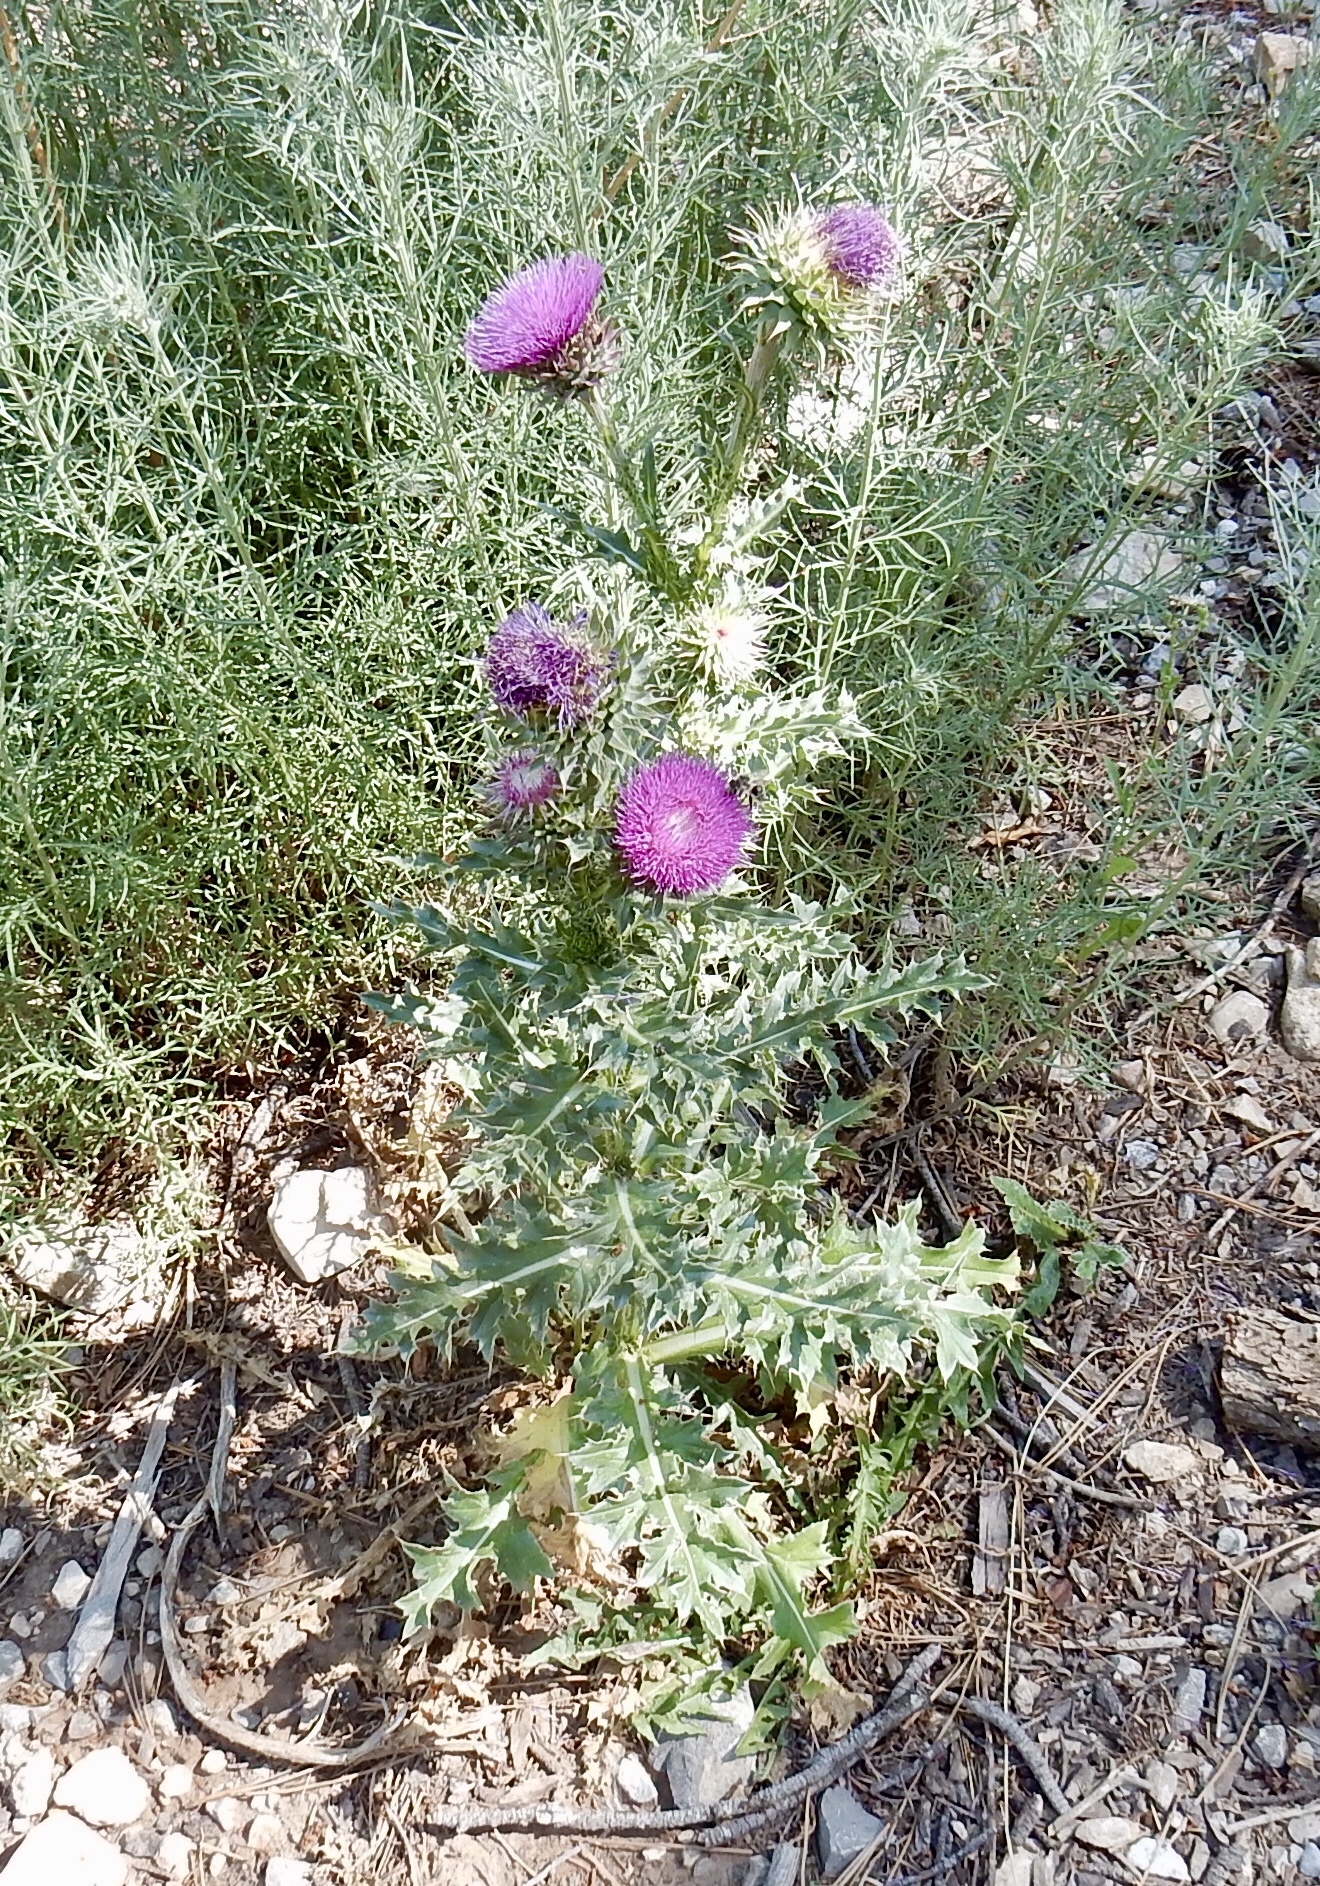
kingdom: Plantae
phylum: Tracheophyta
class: Magnoliopsida
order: Asterales
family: Asteraceae
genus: Carduus
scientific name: Carduus nutans
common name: Musk thistle
